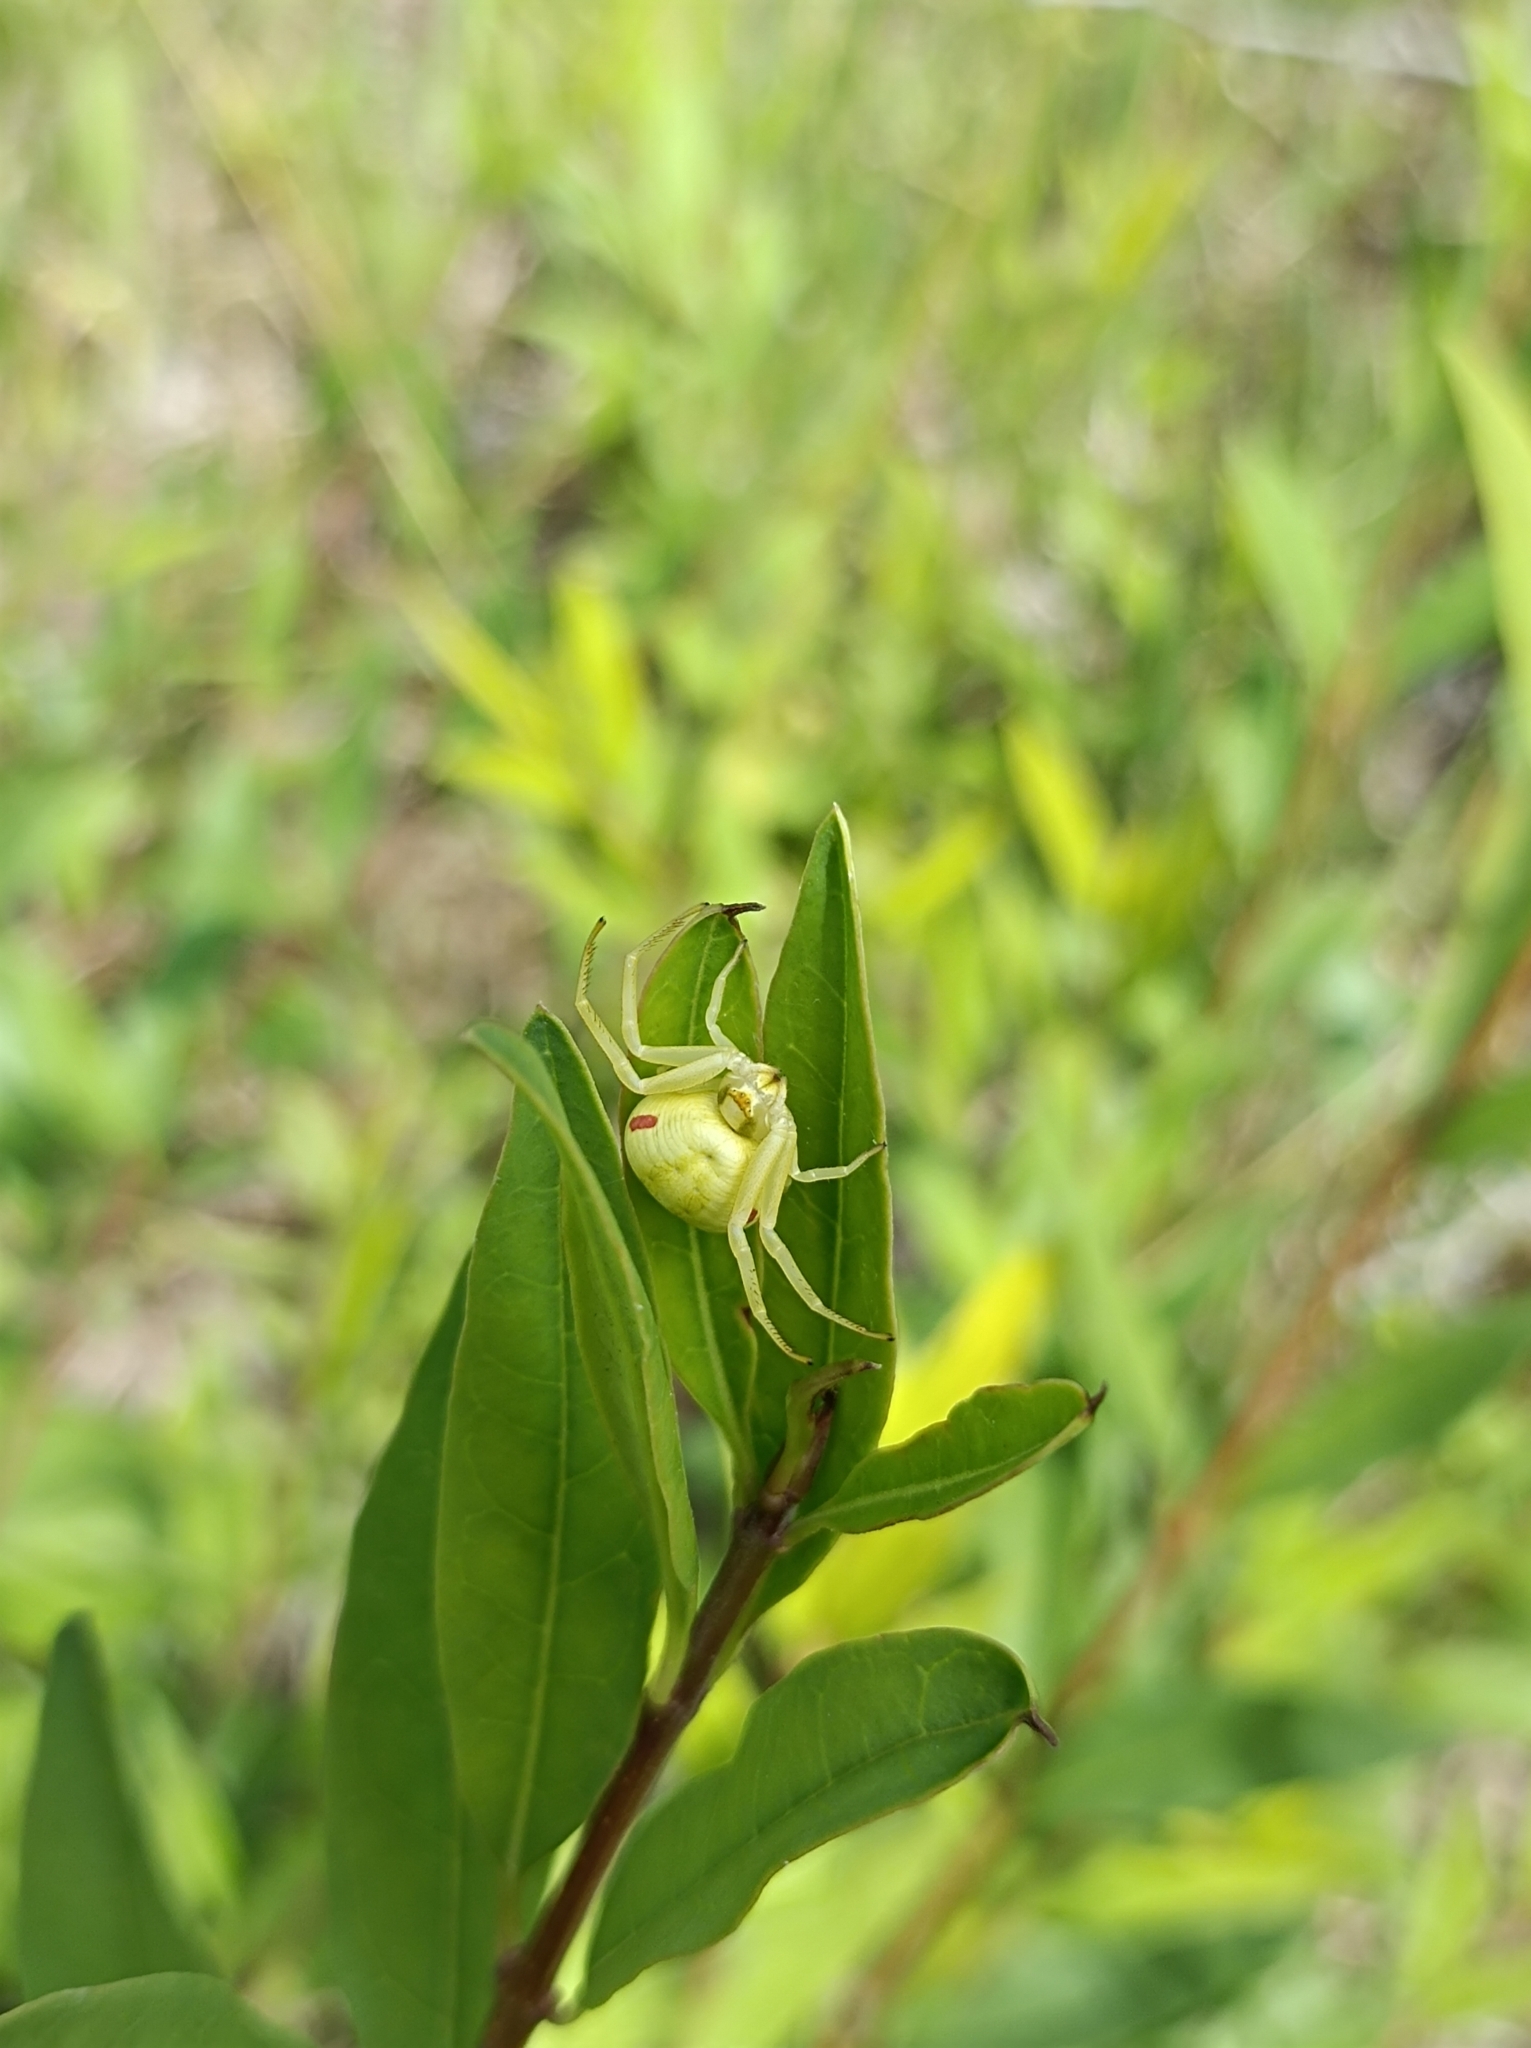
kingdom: Animalia
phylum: Arthropoda
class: Arachnida
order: Araneae
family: Thomisidae
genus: Misumena
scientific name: Misumena vatia
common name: Goldenrod crab spider
